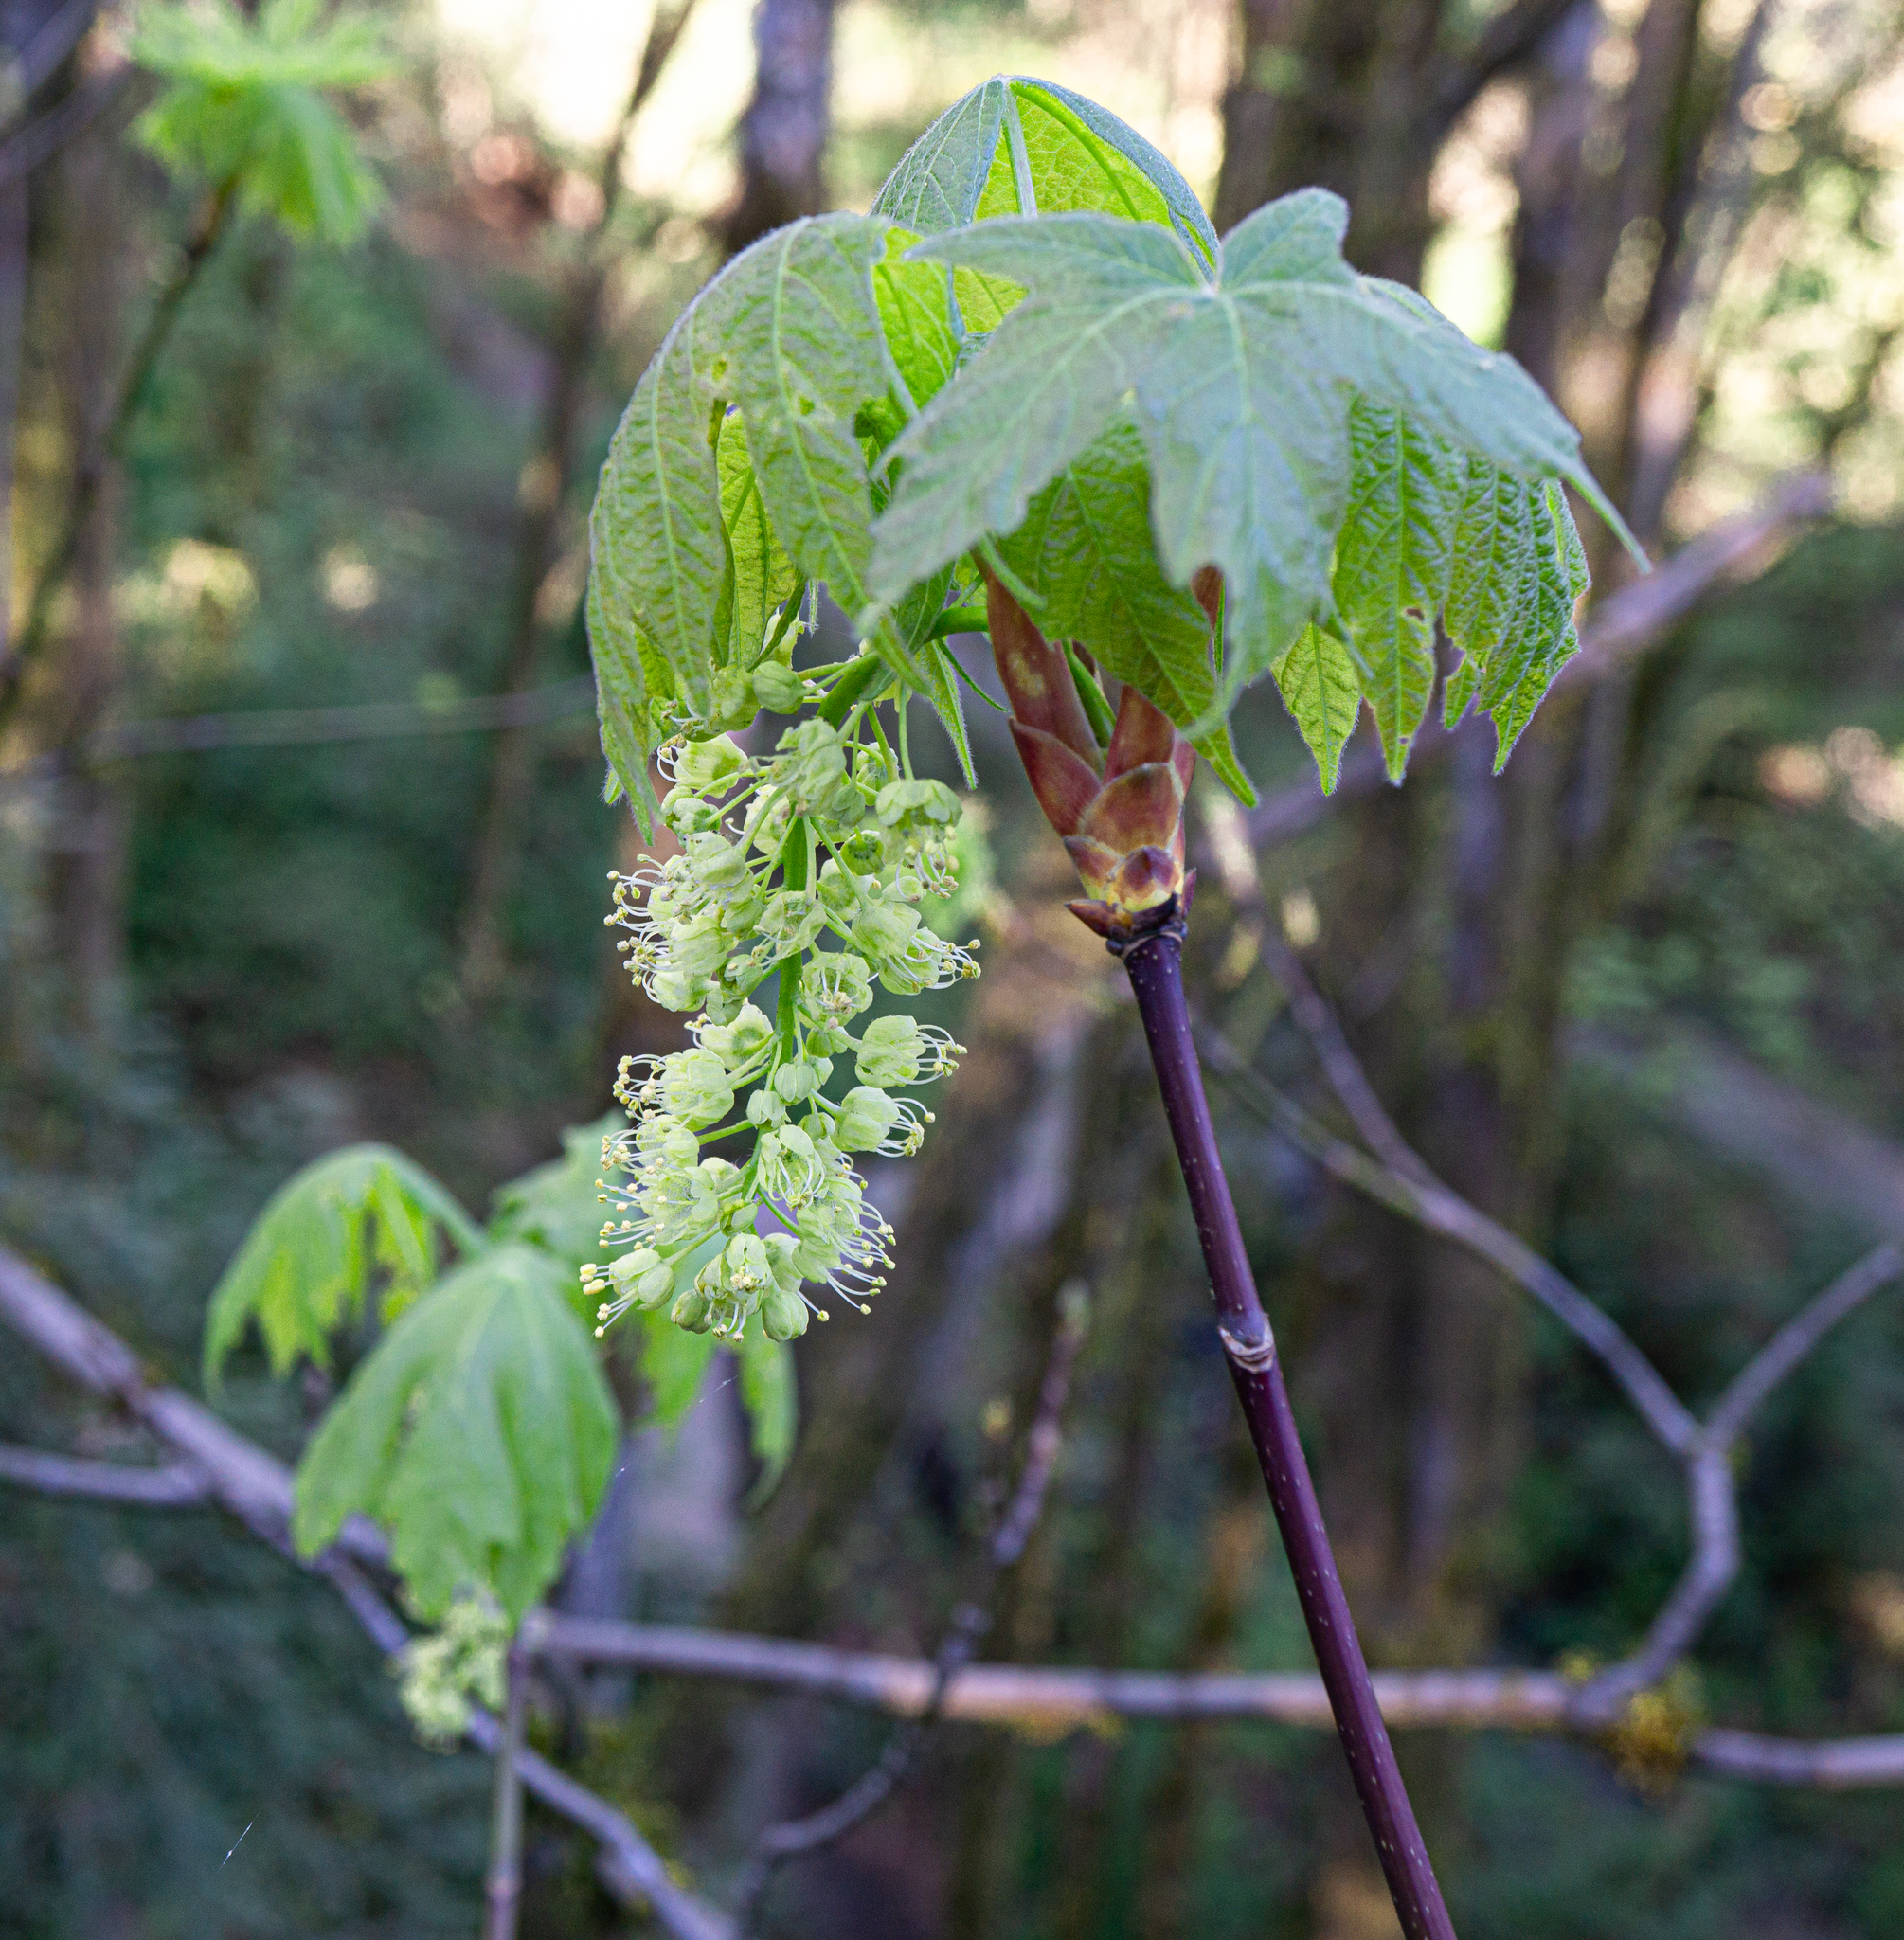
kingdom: Plantae
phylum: Tracheophyta
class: Magnoliopsida
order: Sapindales
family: Sapindaceae
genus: Acer
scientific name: Acer macrophyllum
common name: Oregon maple
